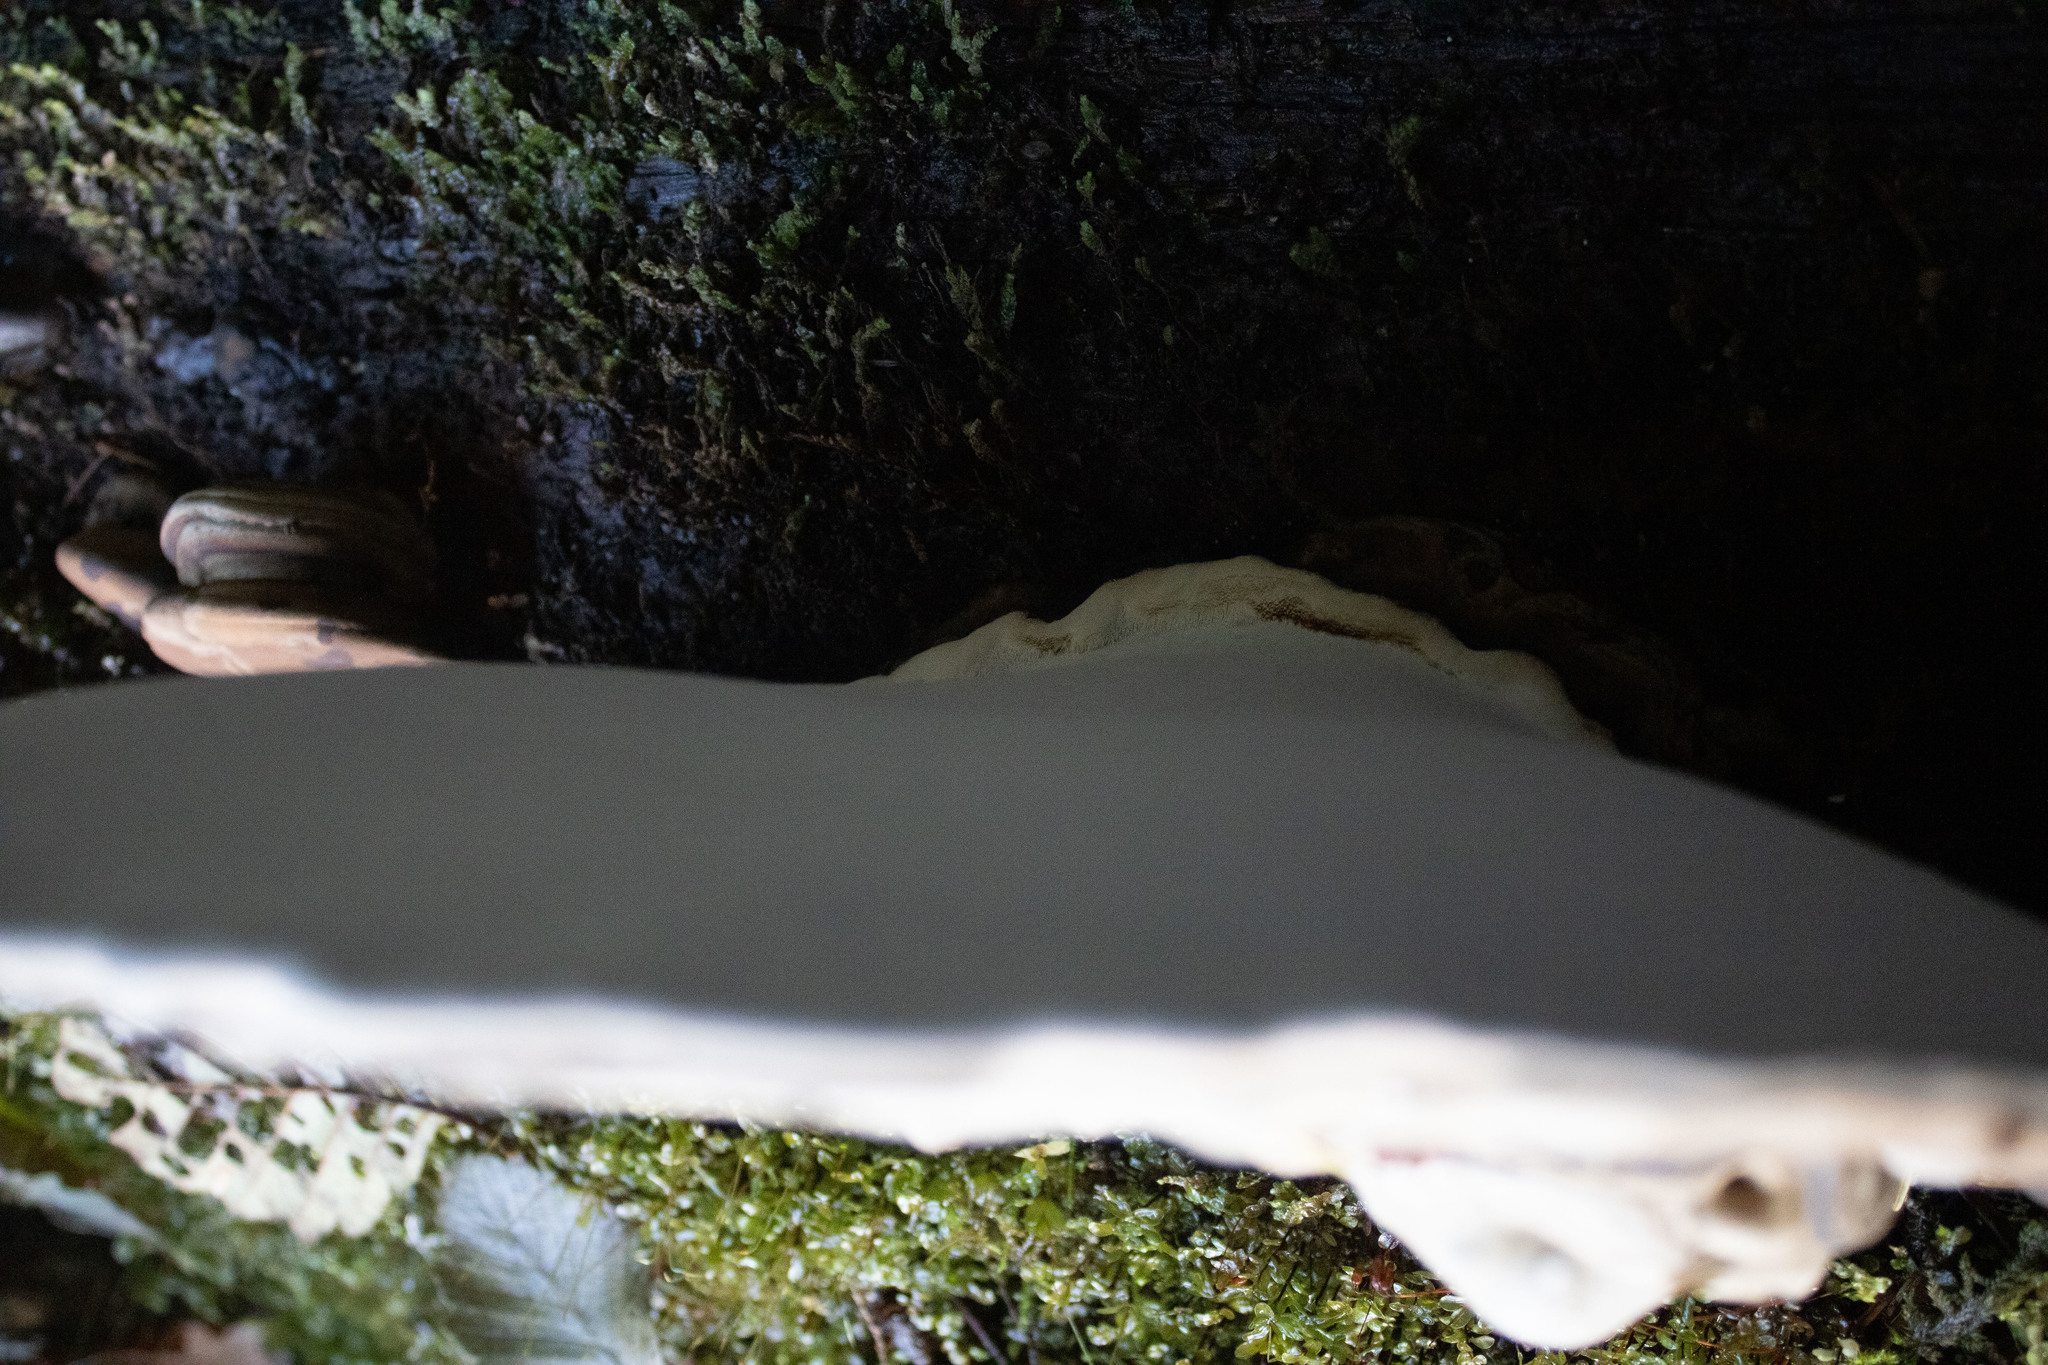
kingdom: Fungi
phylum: Basidiomycota
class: Agaricomycetes
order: Polyporales
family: Polyporaceae
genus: Ganoderma
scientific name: Ganoderma applanatum
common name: Artist's bracket
